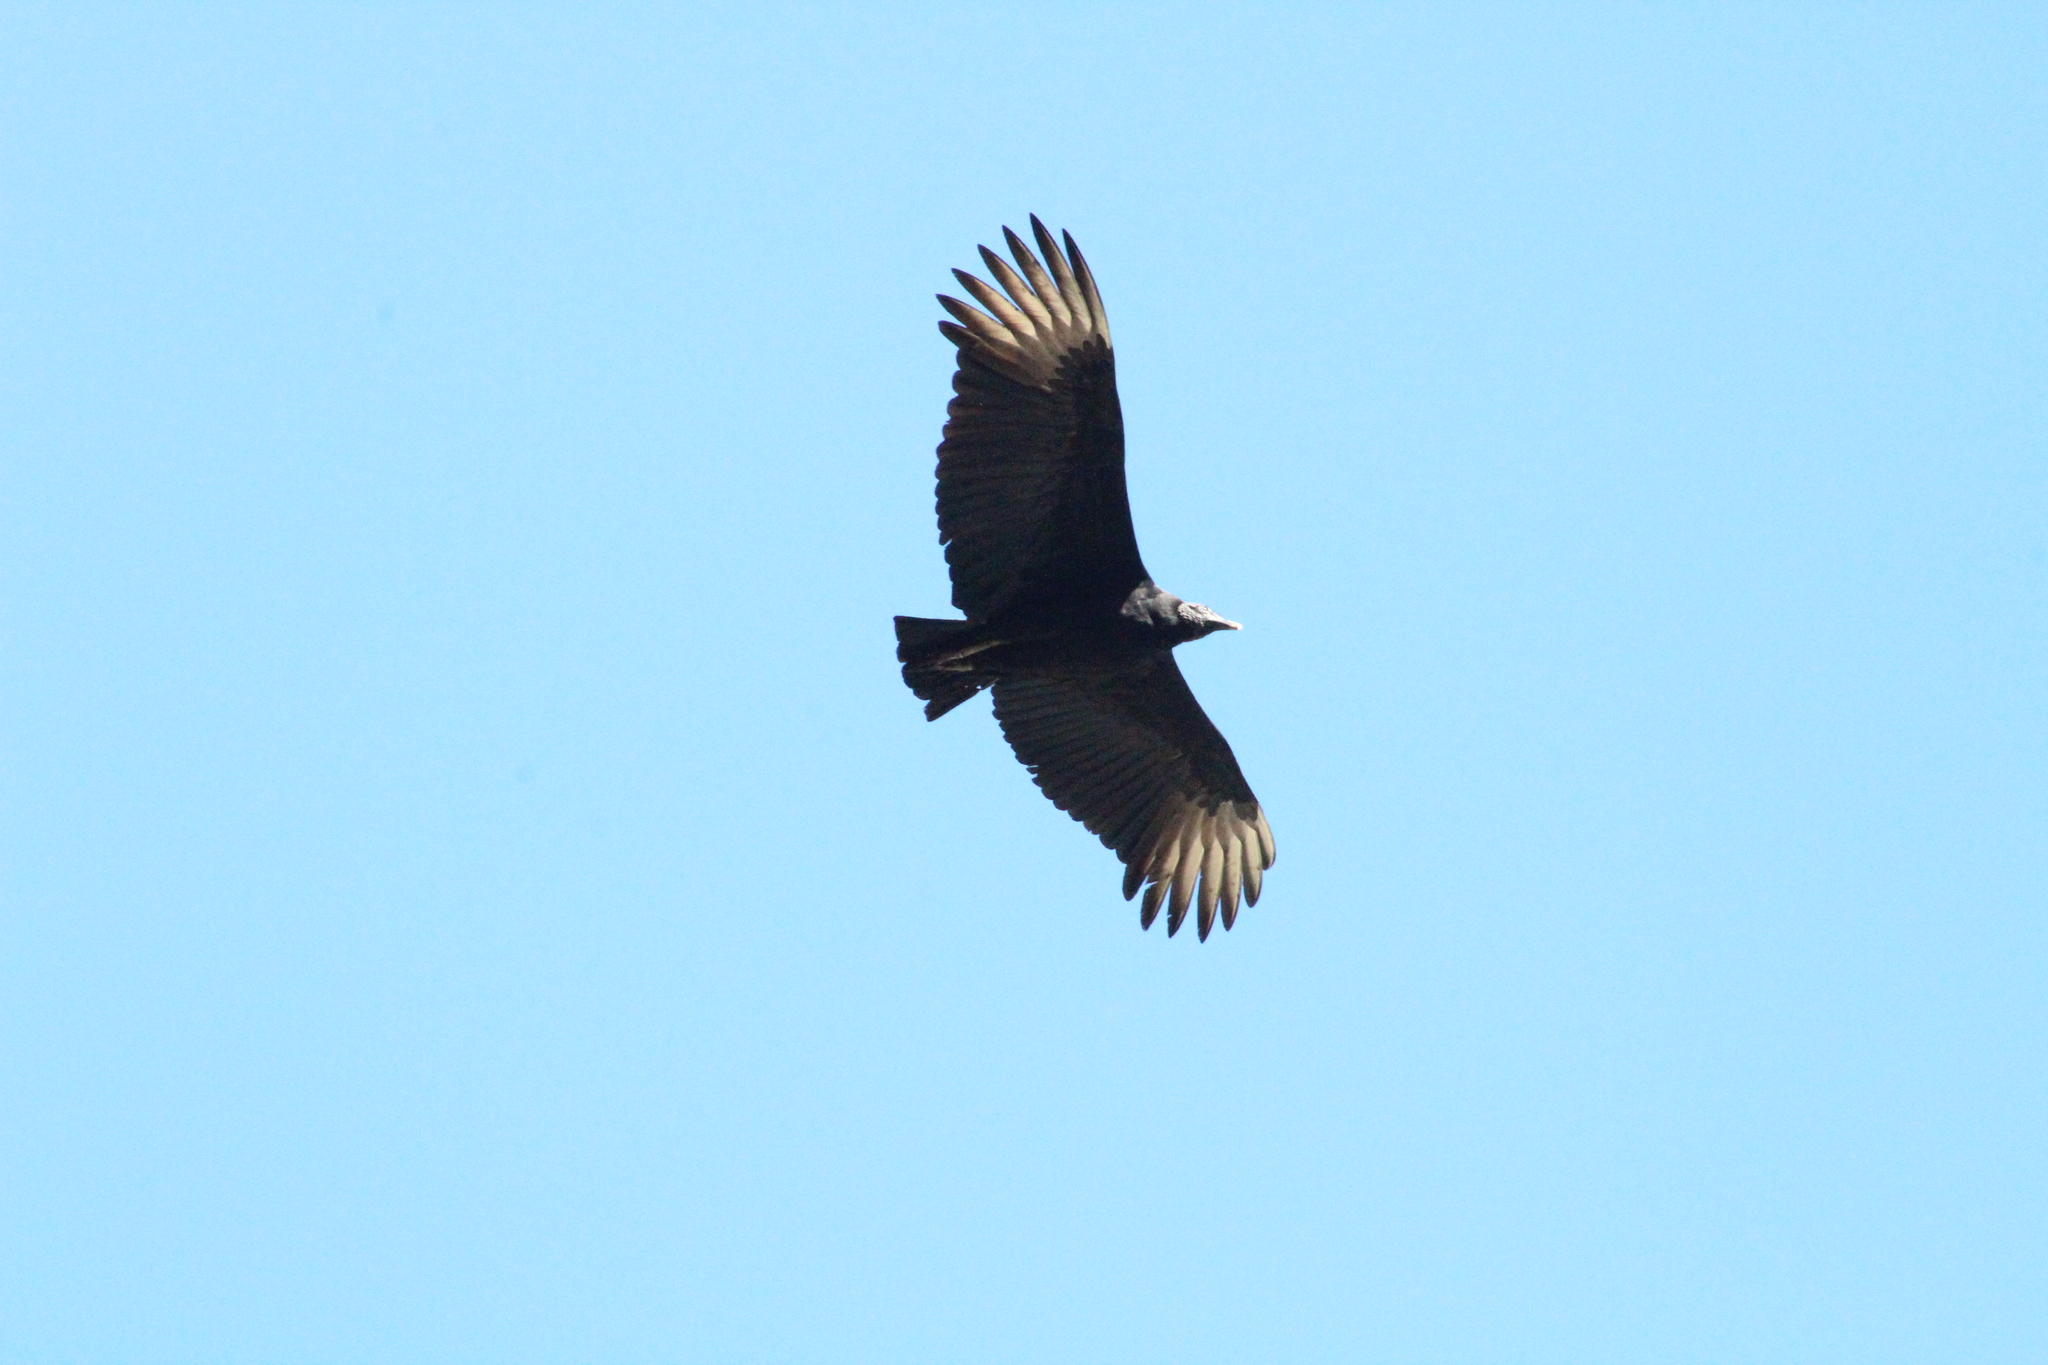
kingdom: Animalia
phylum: Chordata
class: Aves
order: Accipitriformes
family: Cathartidae
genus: Coragyps
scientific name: Coragyps atratus
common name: Black vulture
